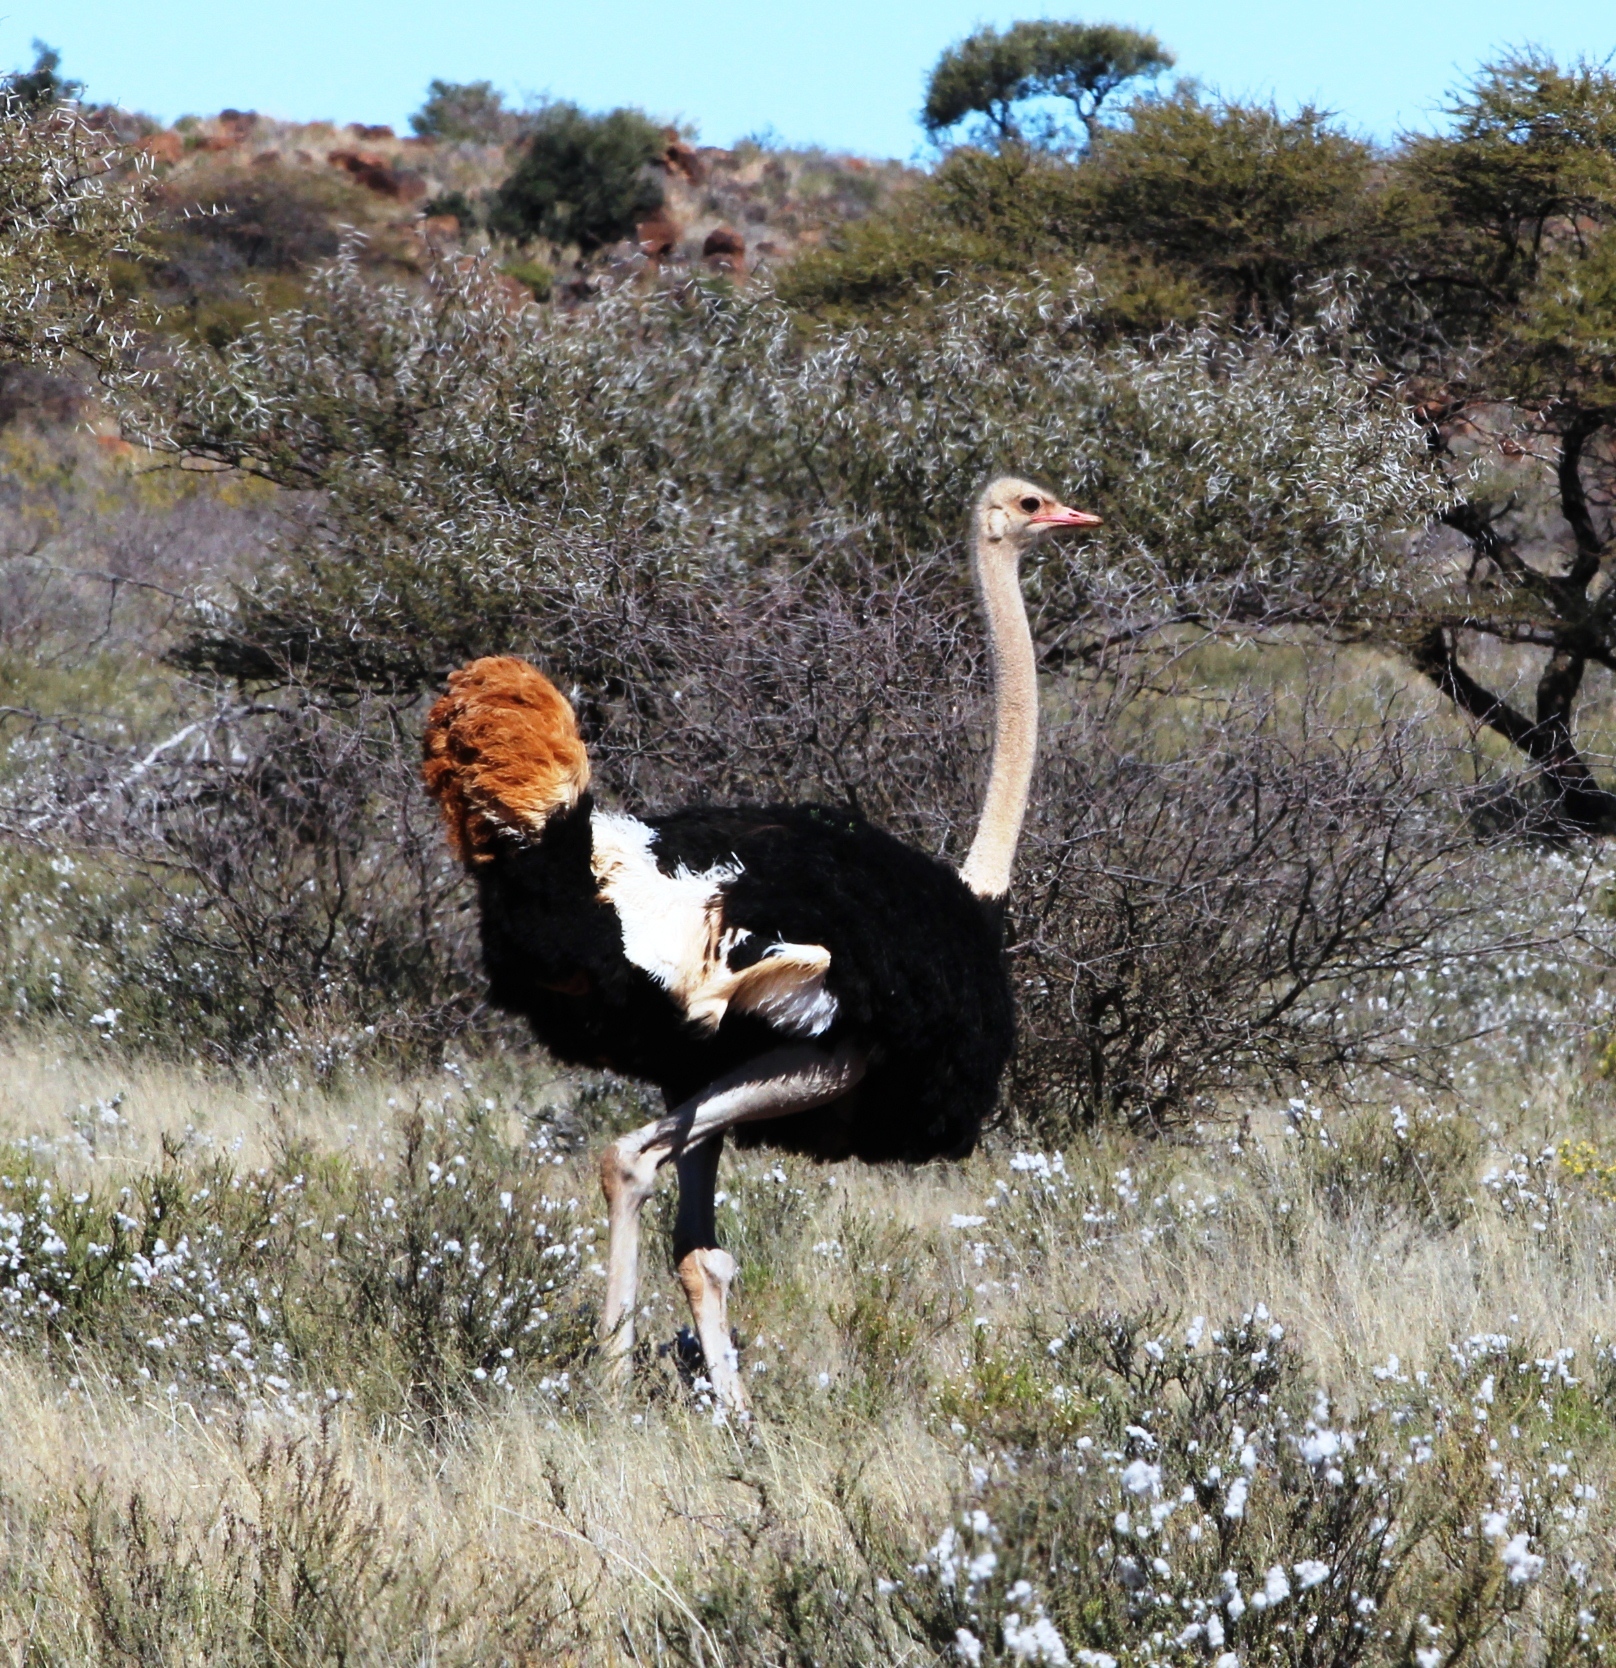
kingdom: Animalia
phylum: Chordata
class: Aves
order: Struthioniformes
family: Struthionidae
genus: Struthio
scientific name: Struthio camelus
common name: Common ostrich
